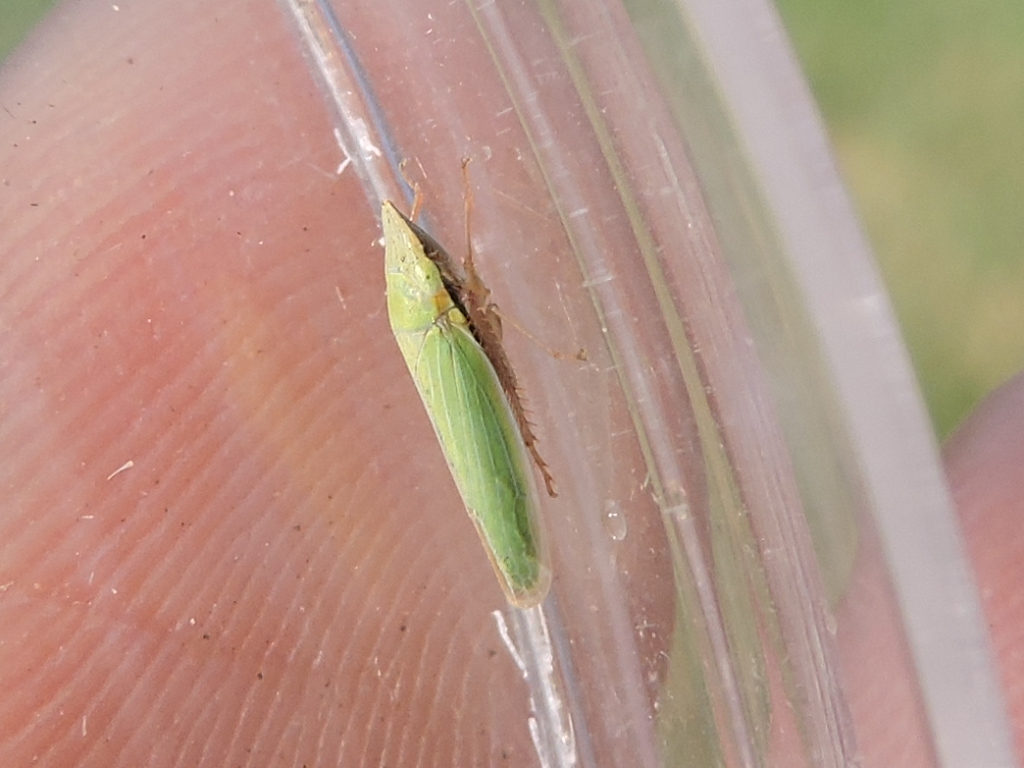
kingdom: Animalia
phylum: Arthropoda
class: Insecta
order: Hemiptera
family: Cicadellidae
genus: Draeculacephala
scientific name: Draeculacephala antica
